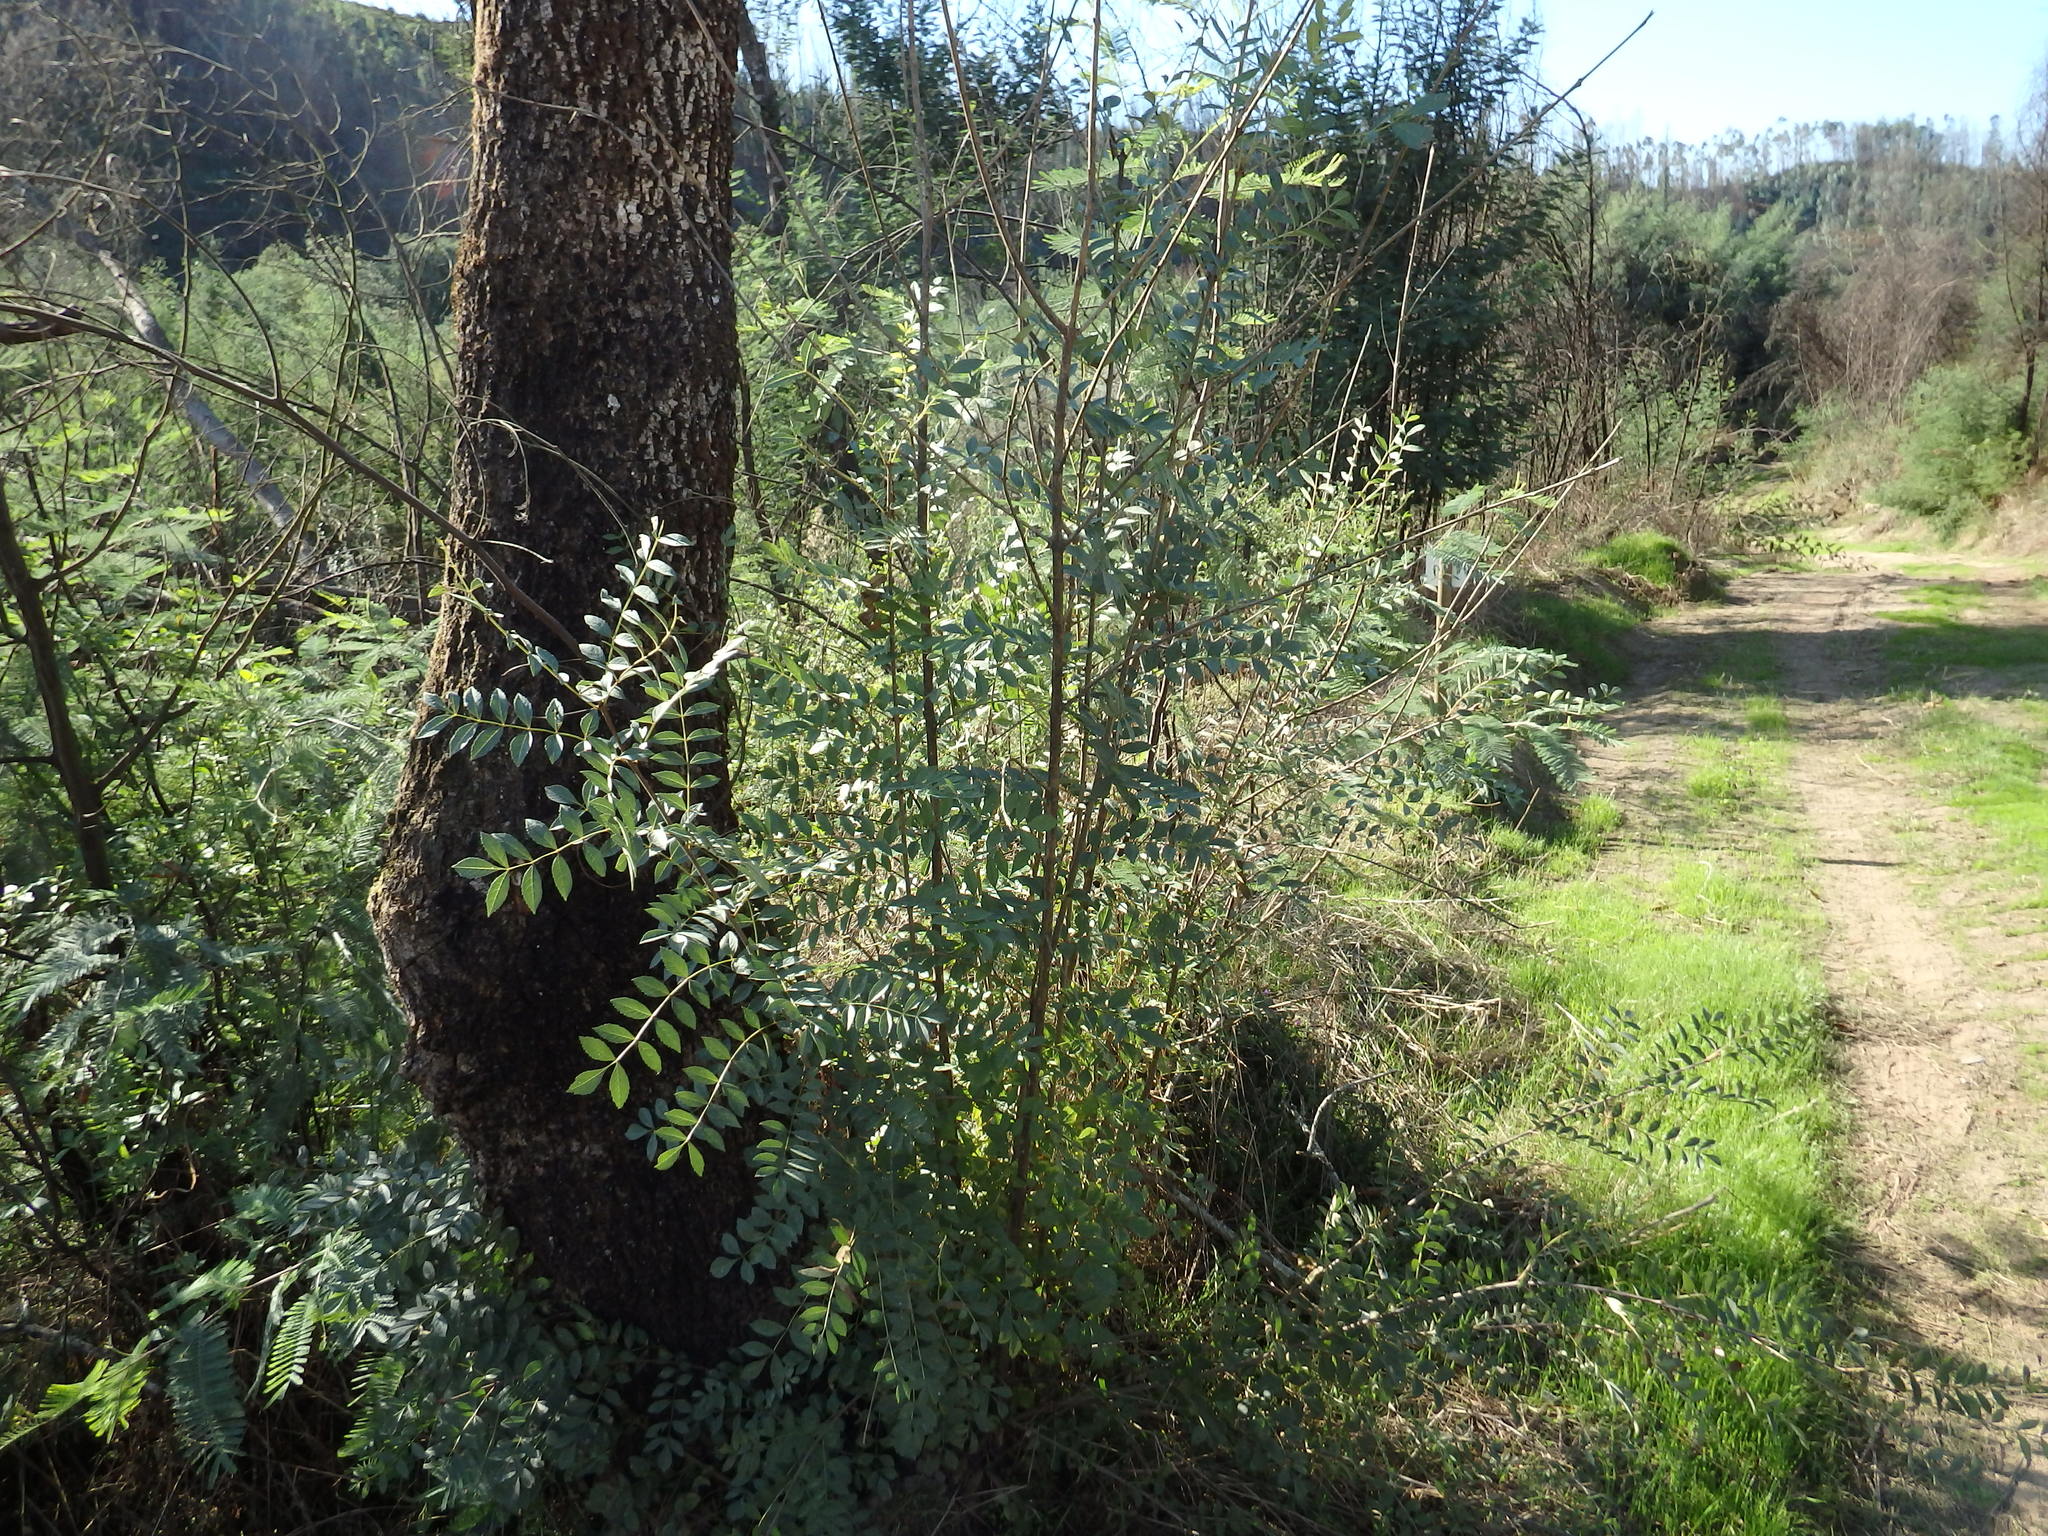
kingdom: Plantae
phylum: Tracheophyta
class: Magnoliopsida
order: Lamiales
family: Oleaceae
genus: Fraxinus
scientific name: Fraxinus angustifolia
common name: Narrow-leafed ash
